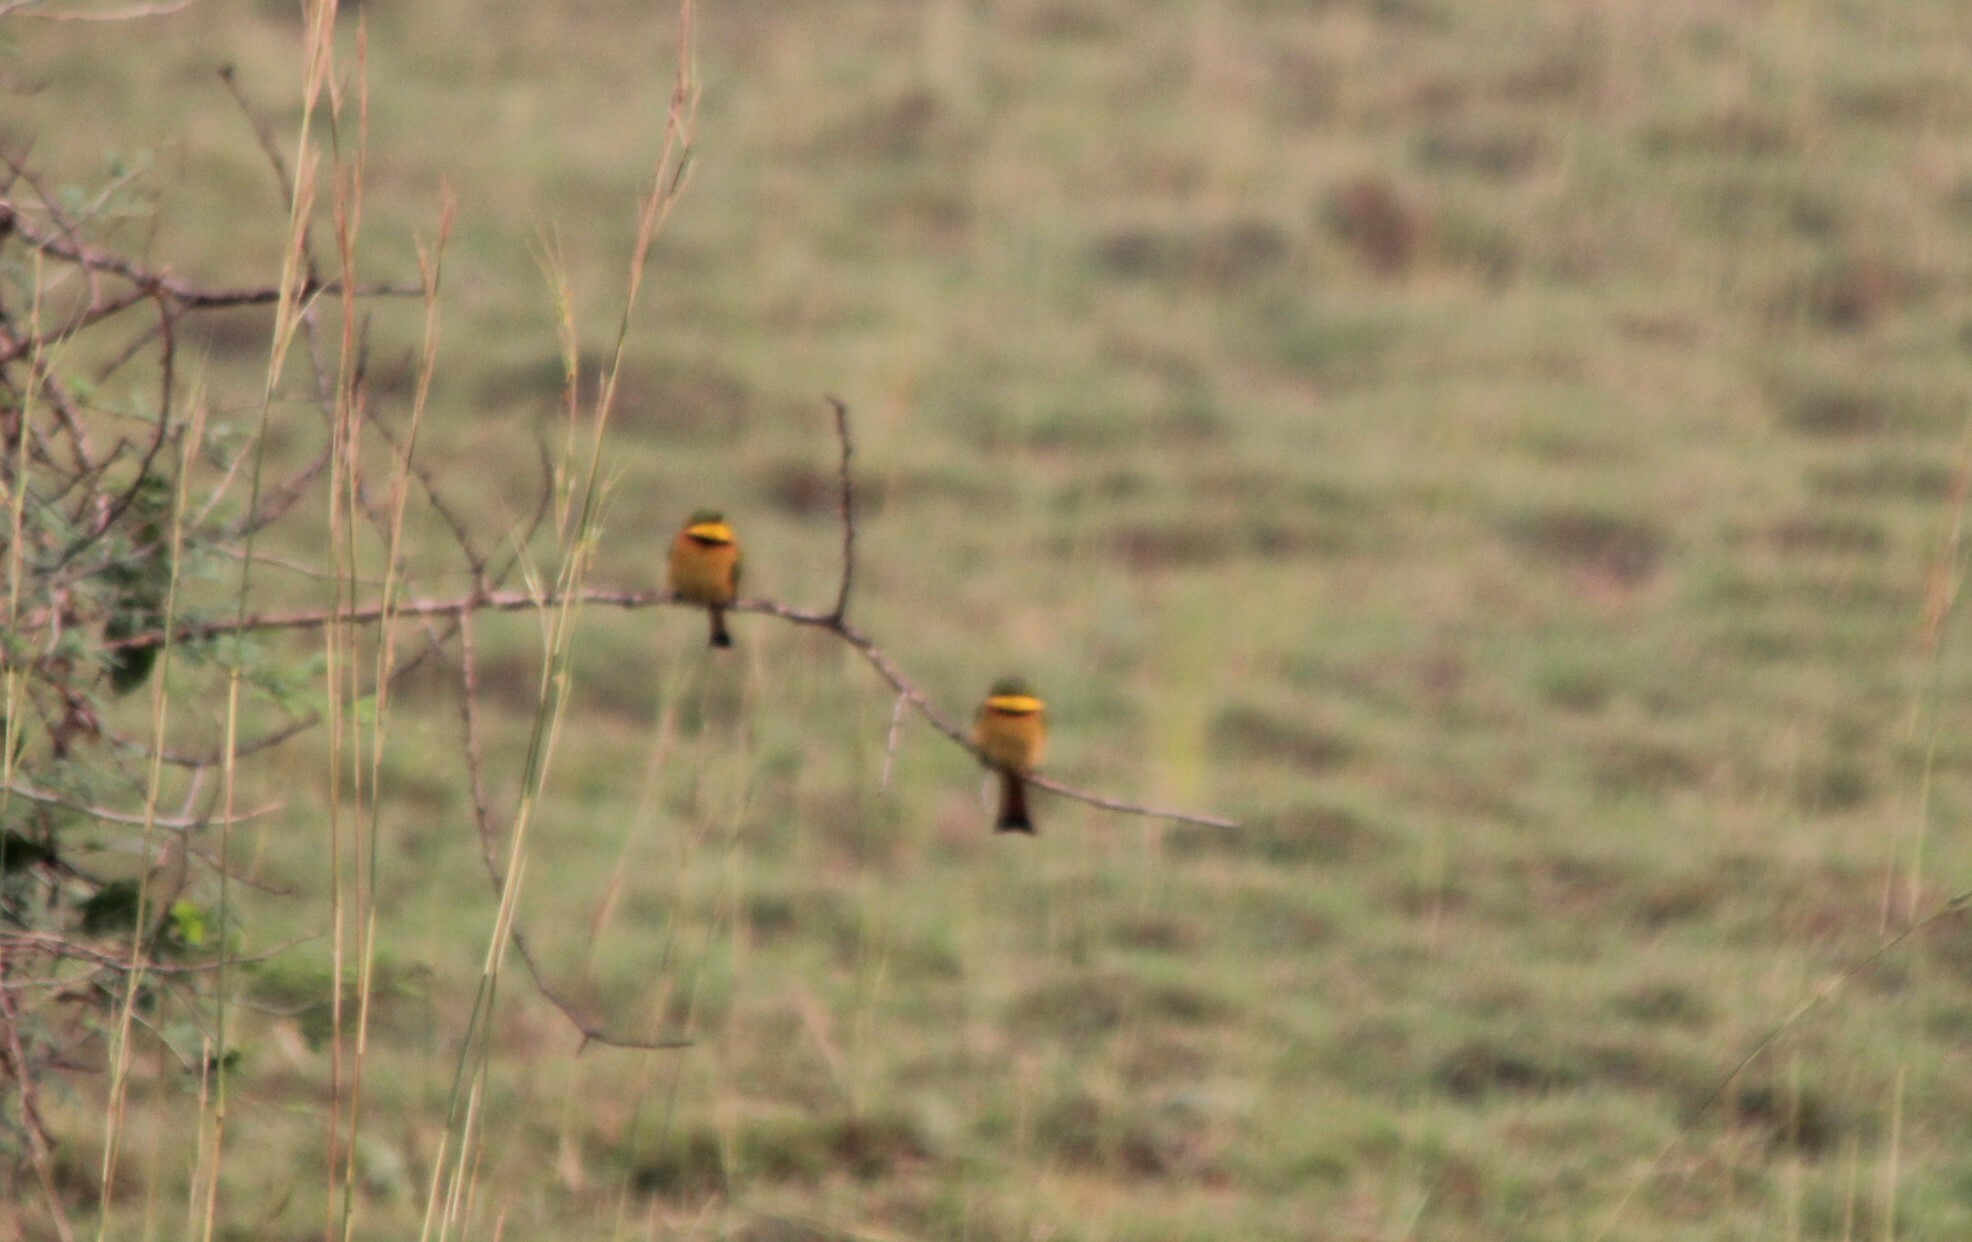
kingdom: Animalia
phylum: Chordata
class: Aves
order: Coraciiformes
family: Meropidae
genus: Merops
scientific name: Merops pusillus
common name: Little bee-eater
